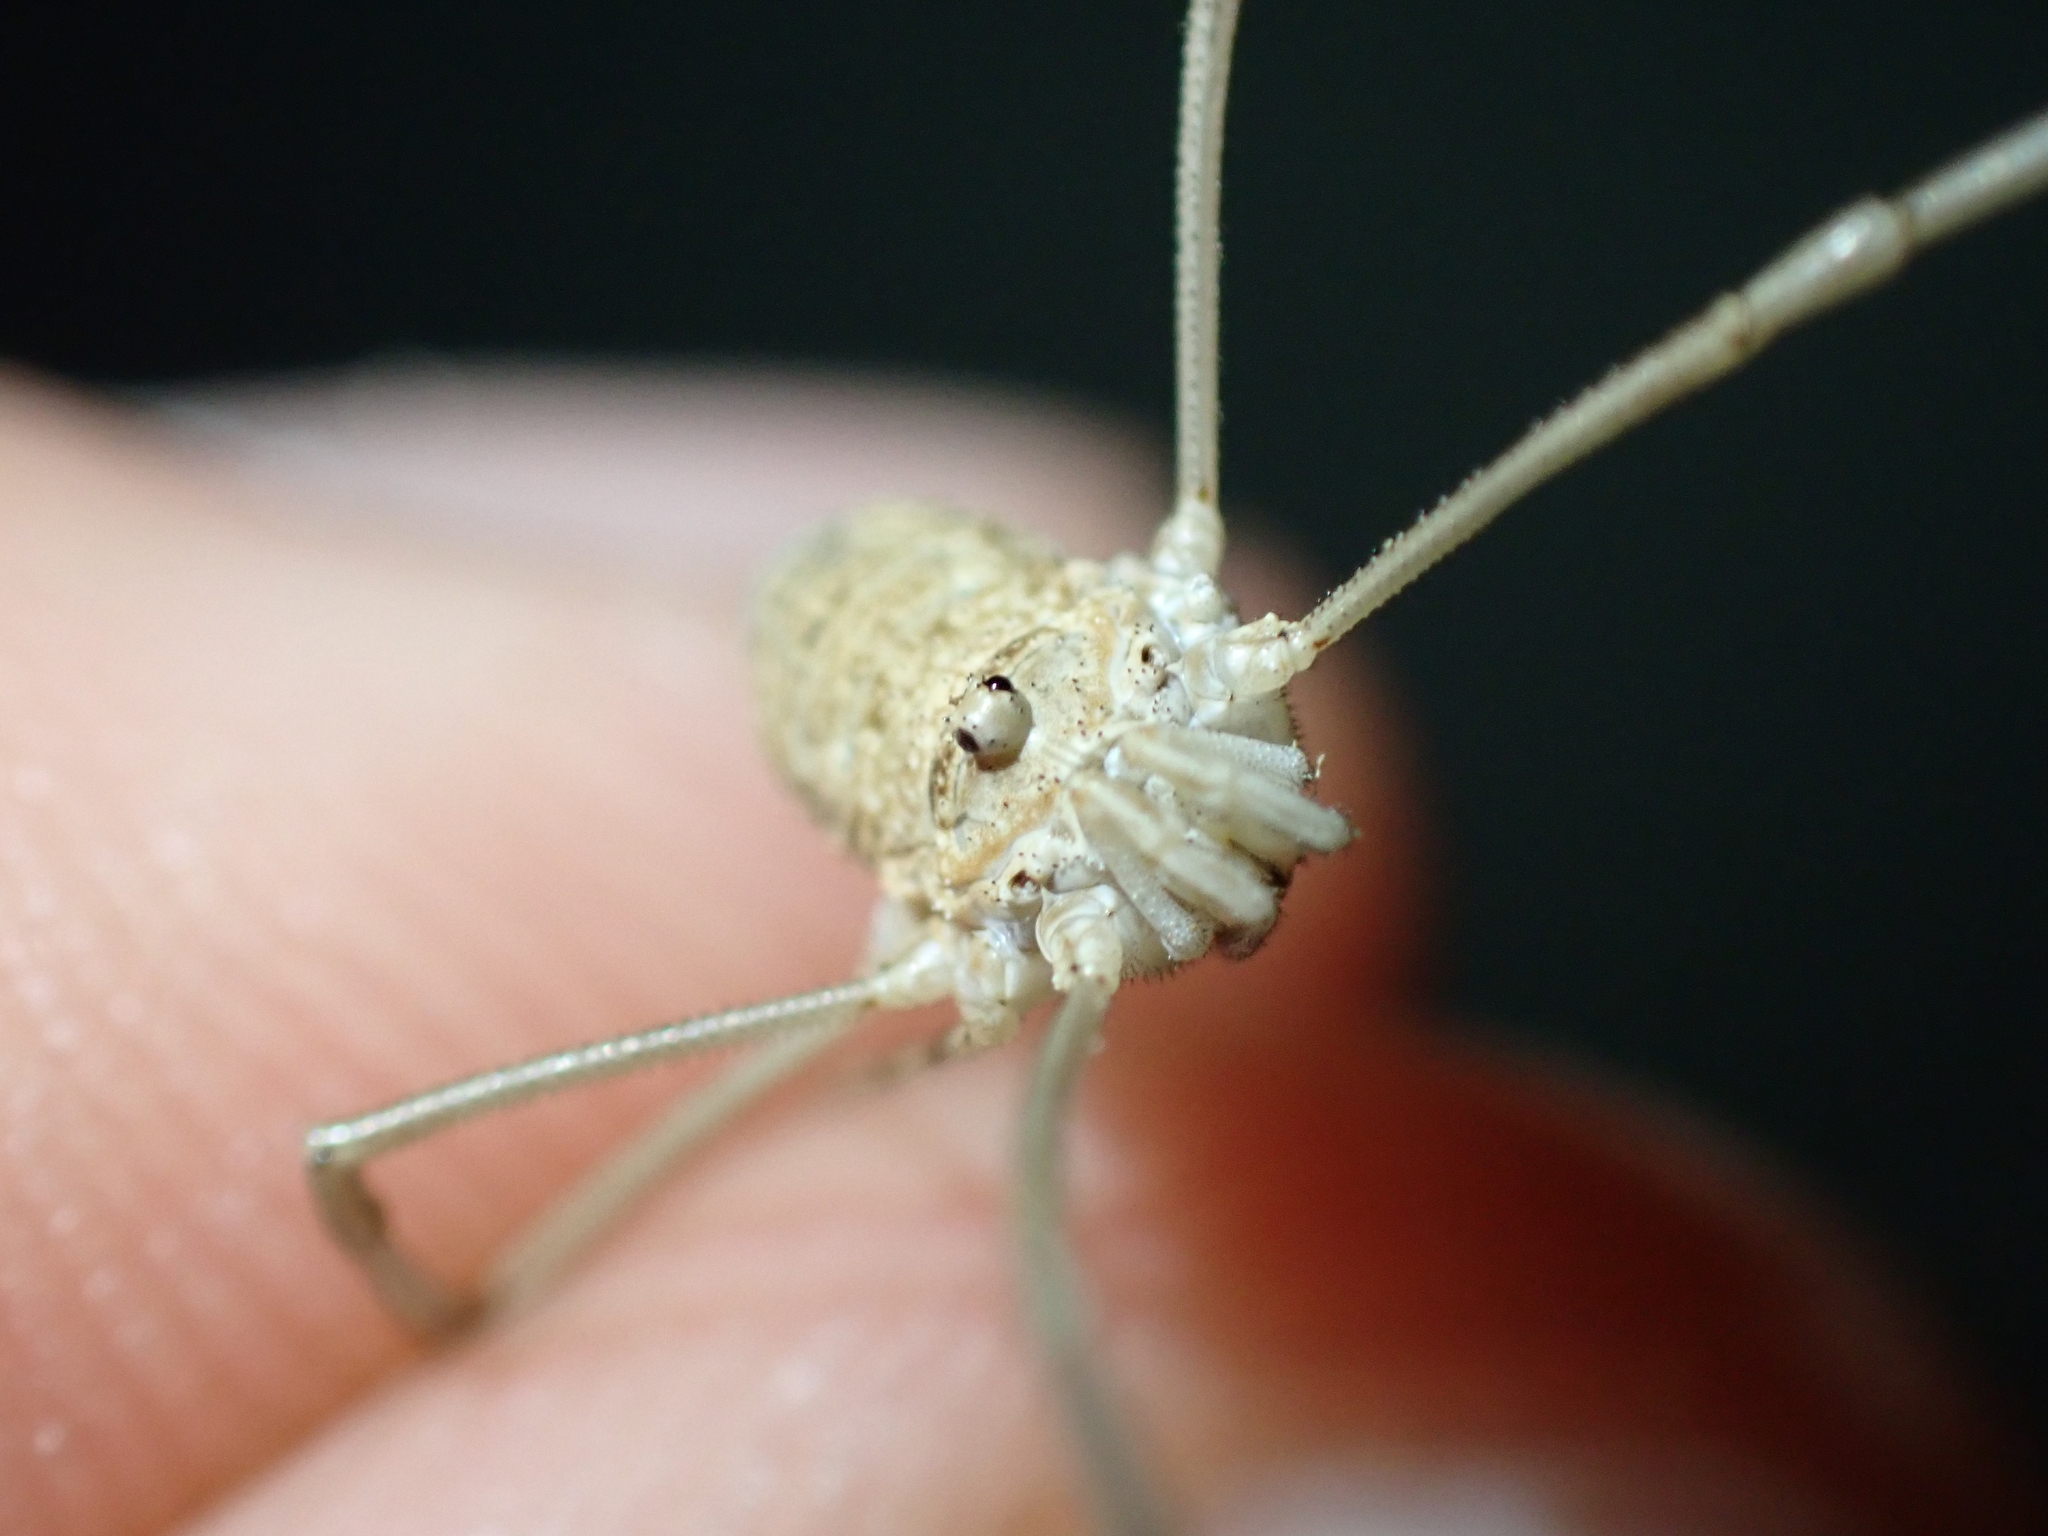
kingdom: Animalia
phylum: Arthropoda
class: Arachnida
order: Opiliones
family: Phalangiidae
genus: Phalangium
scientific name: Phalangium opilio
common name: Daddy longleg
